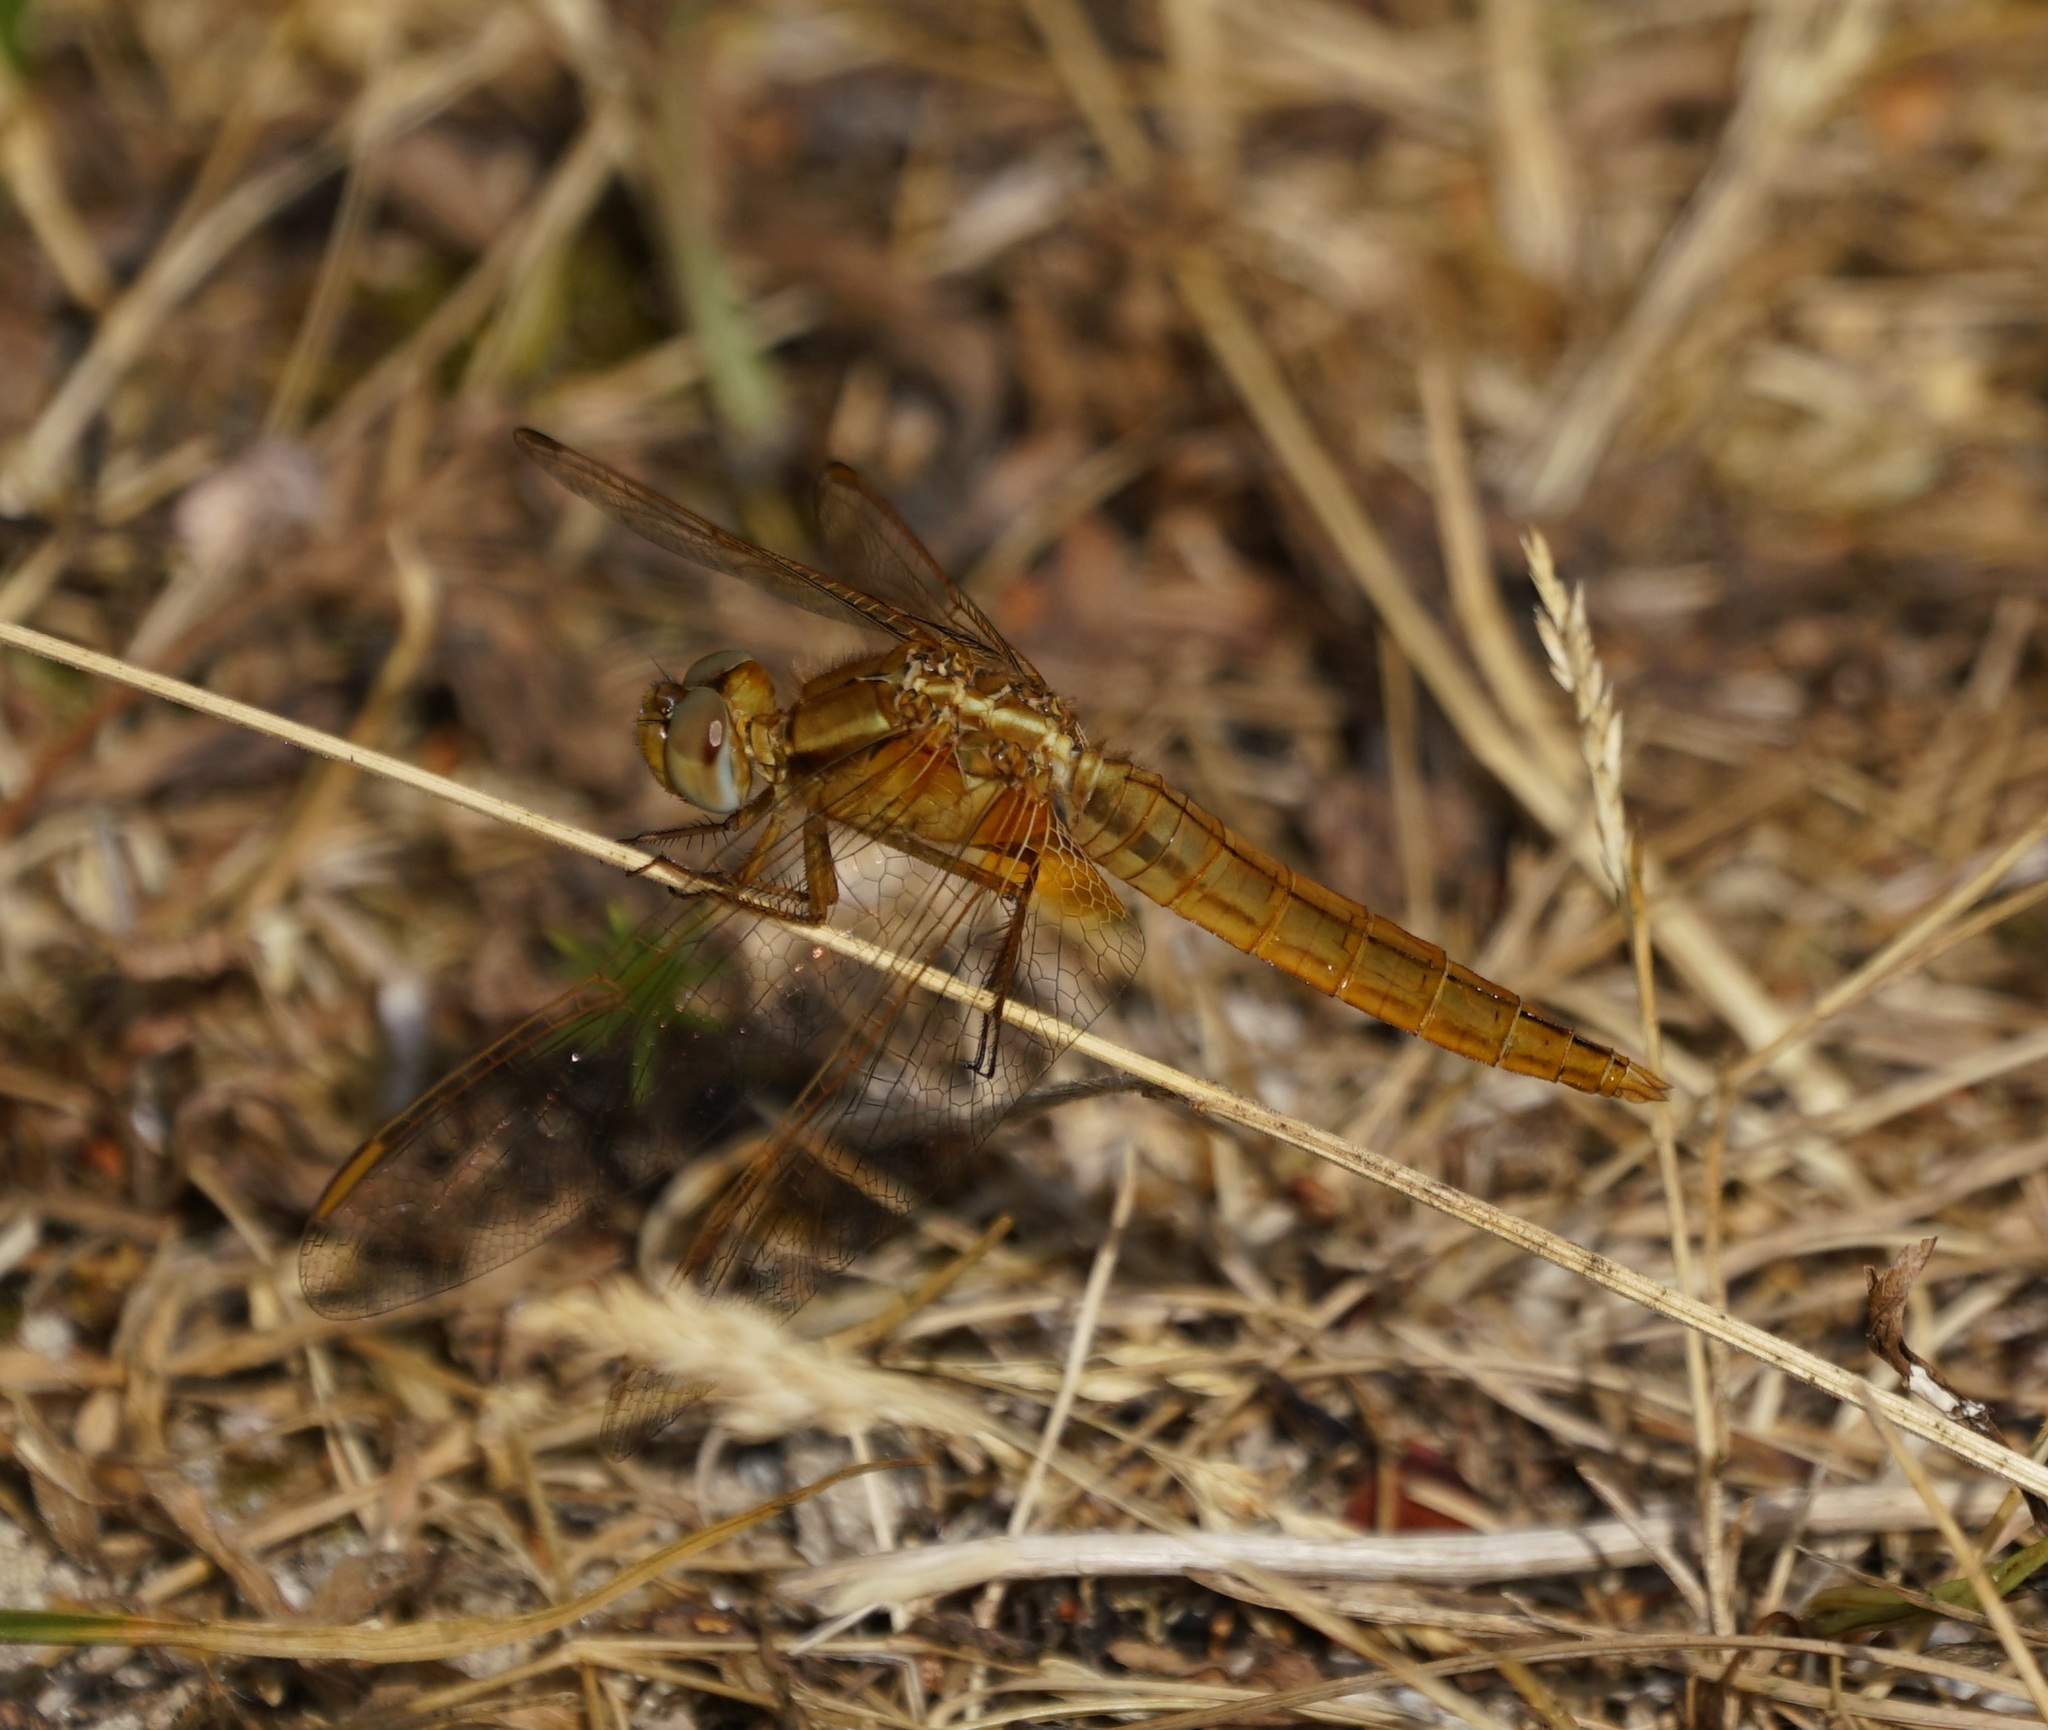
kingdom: Animalia
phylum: Arthropoda
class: Insecta
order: Odonata
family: Libellulidae
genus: Crocothemis
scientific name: Crocothemis erythraea
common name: Scarlet dragonfly
